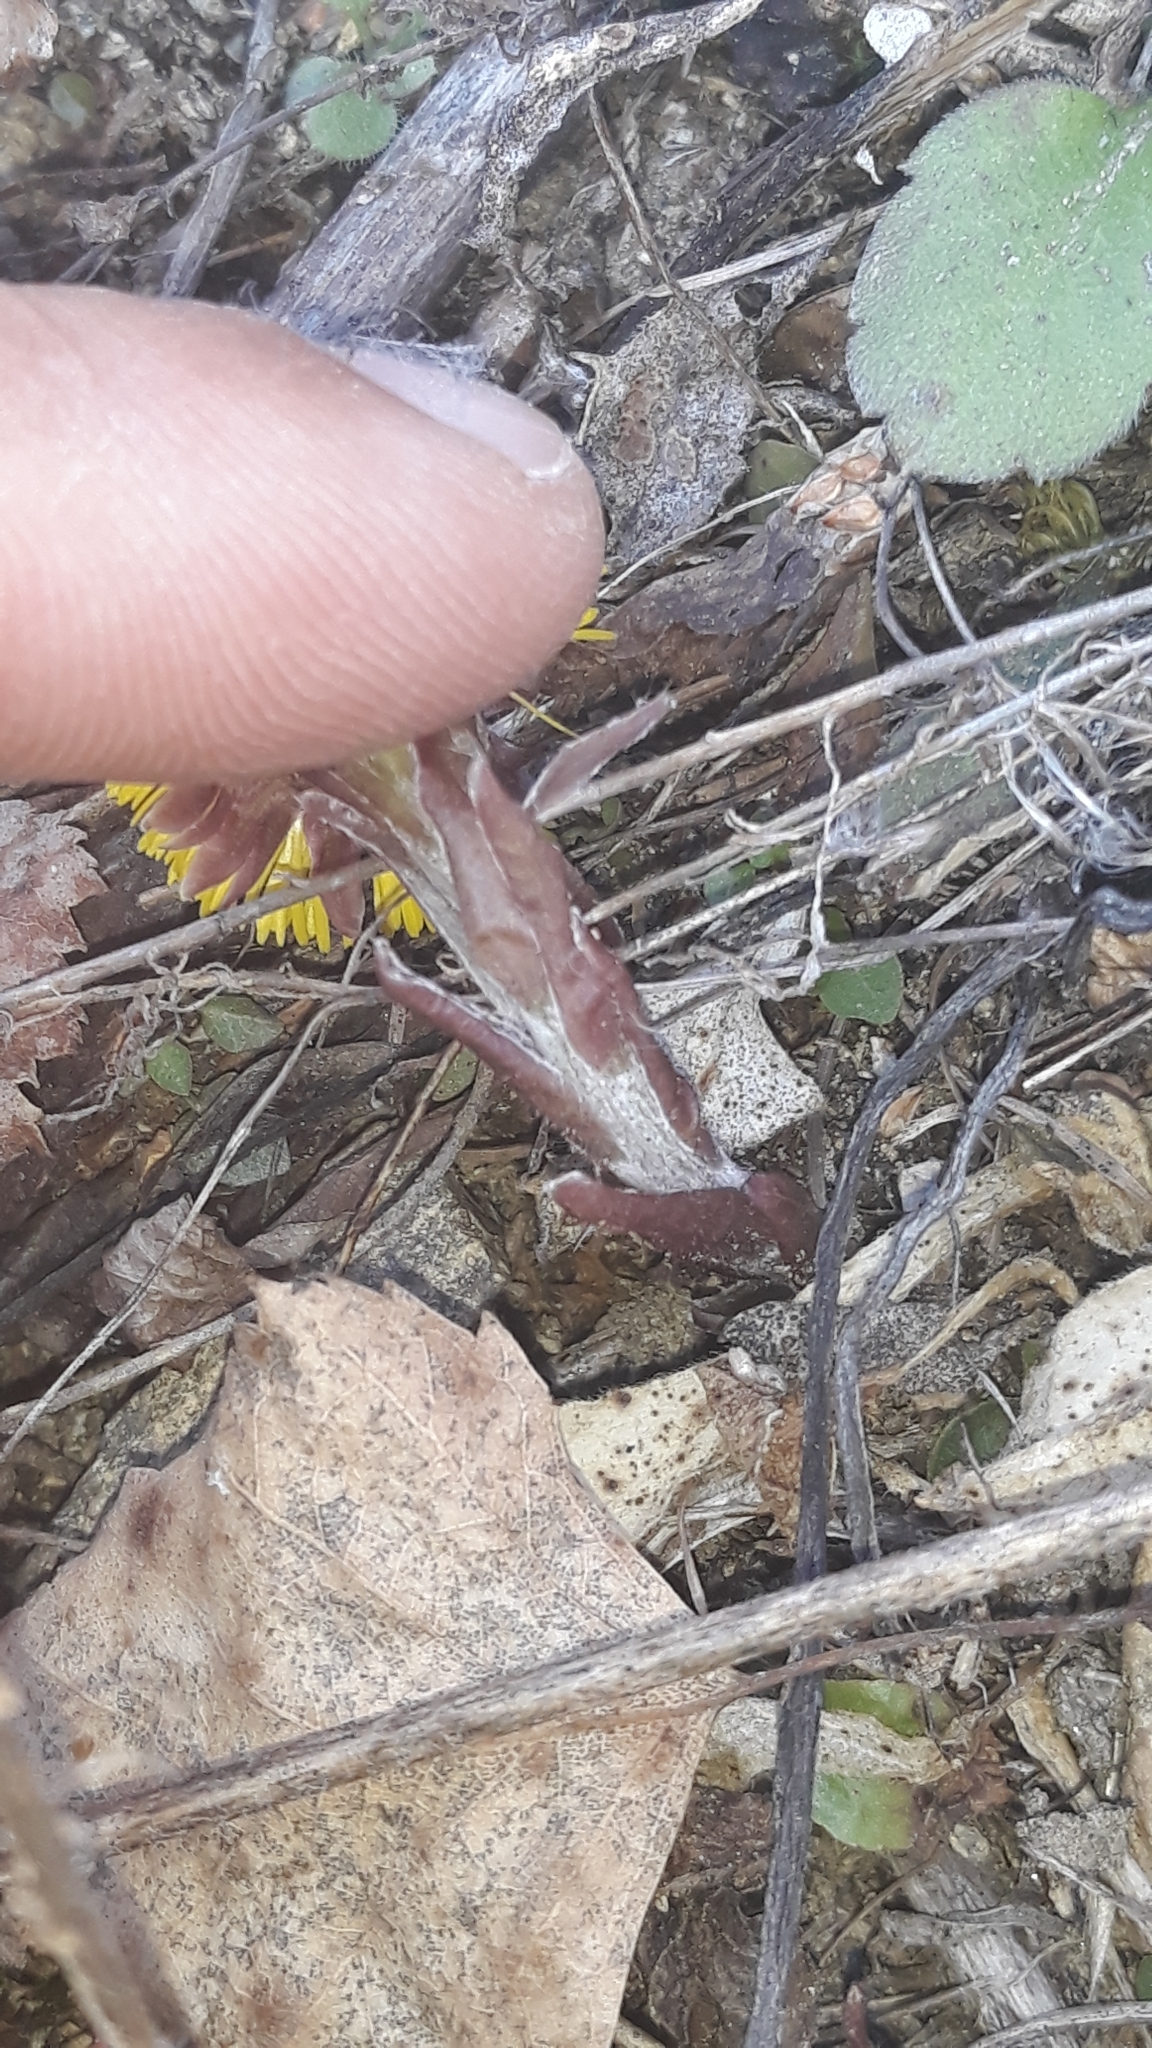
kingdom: Plantae
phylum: Tracheophyta
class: Magnoliopsida
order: Asterales
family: Asteraceae
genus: Tussilago
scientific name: Tussilago farfara
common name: Coltsfoot
